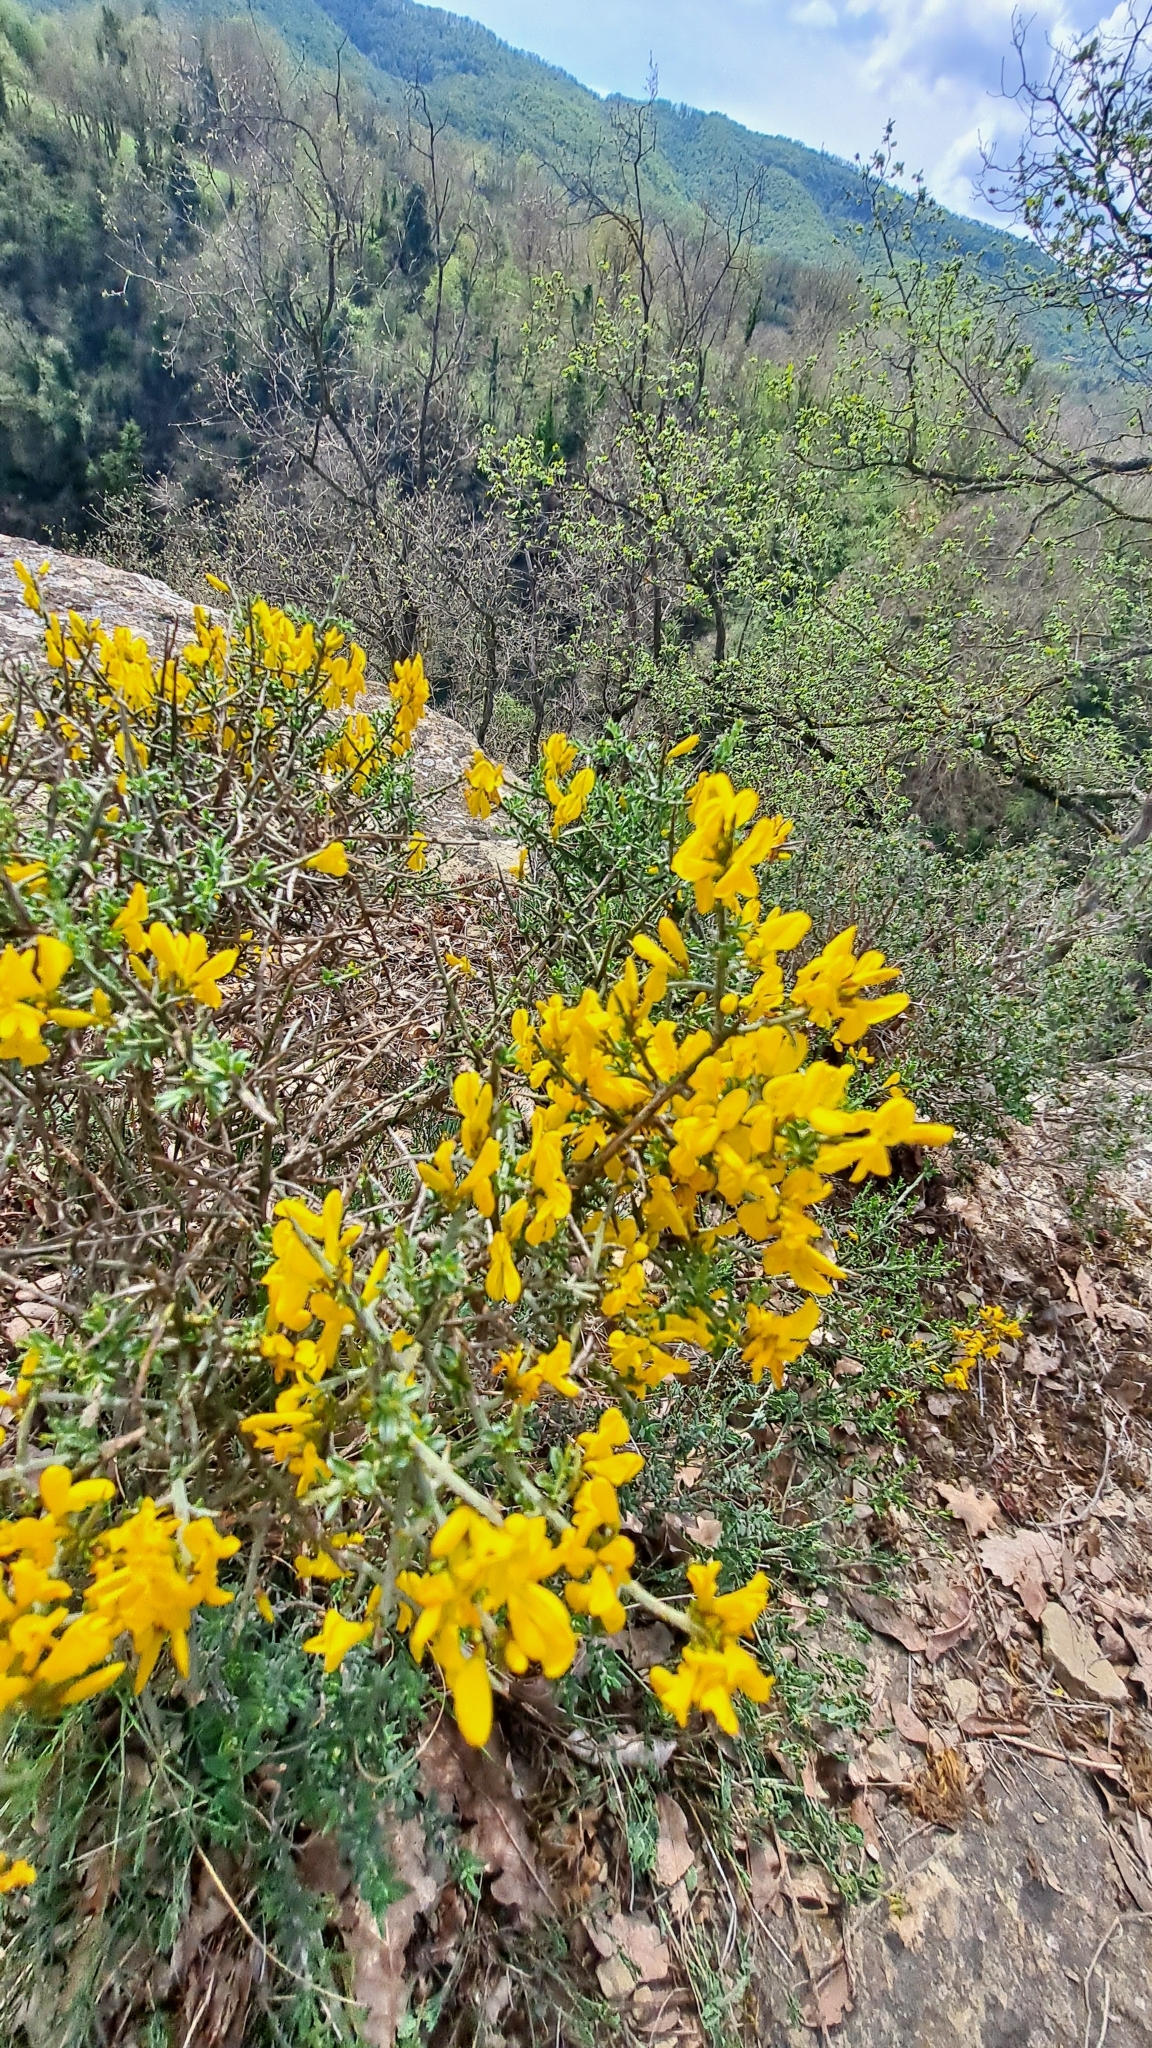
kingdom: Plantae
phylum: Tracheophyta
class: Magnoliopsida
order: Fabales
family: Fabaceae
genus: Genista
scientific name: Genista scorpius
